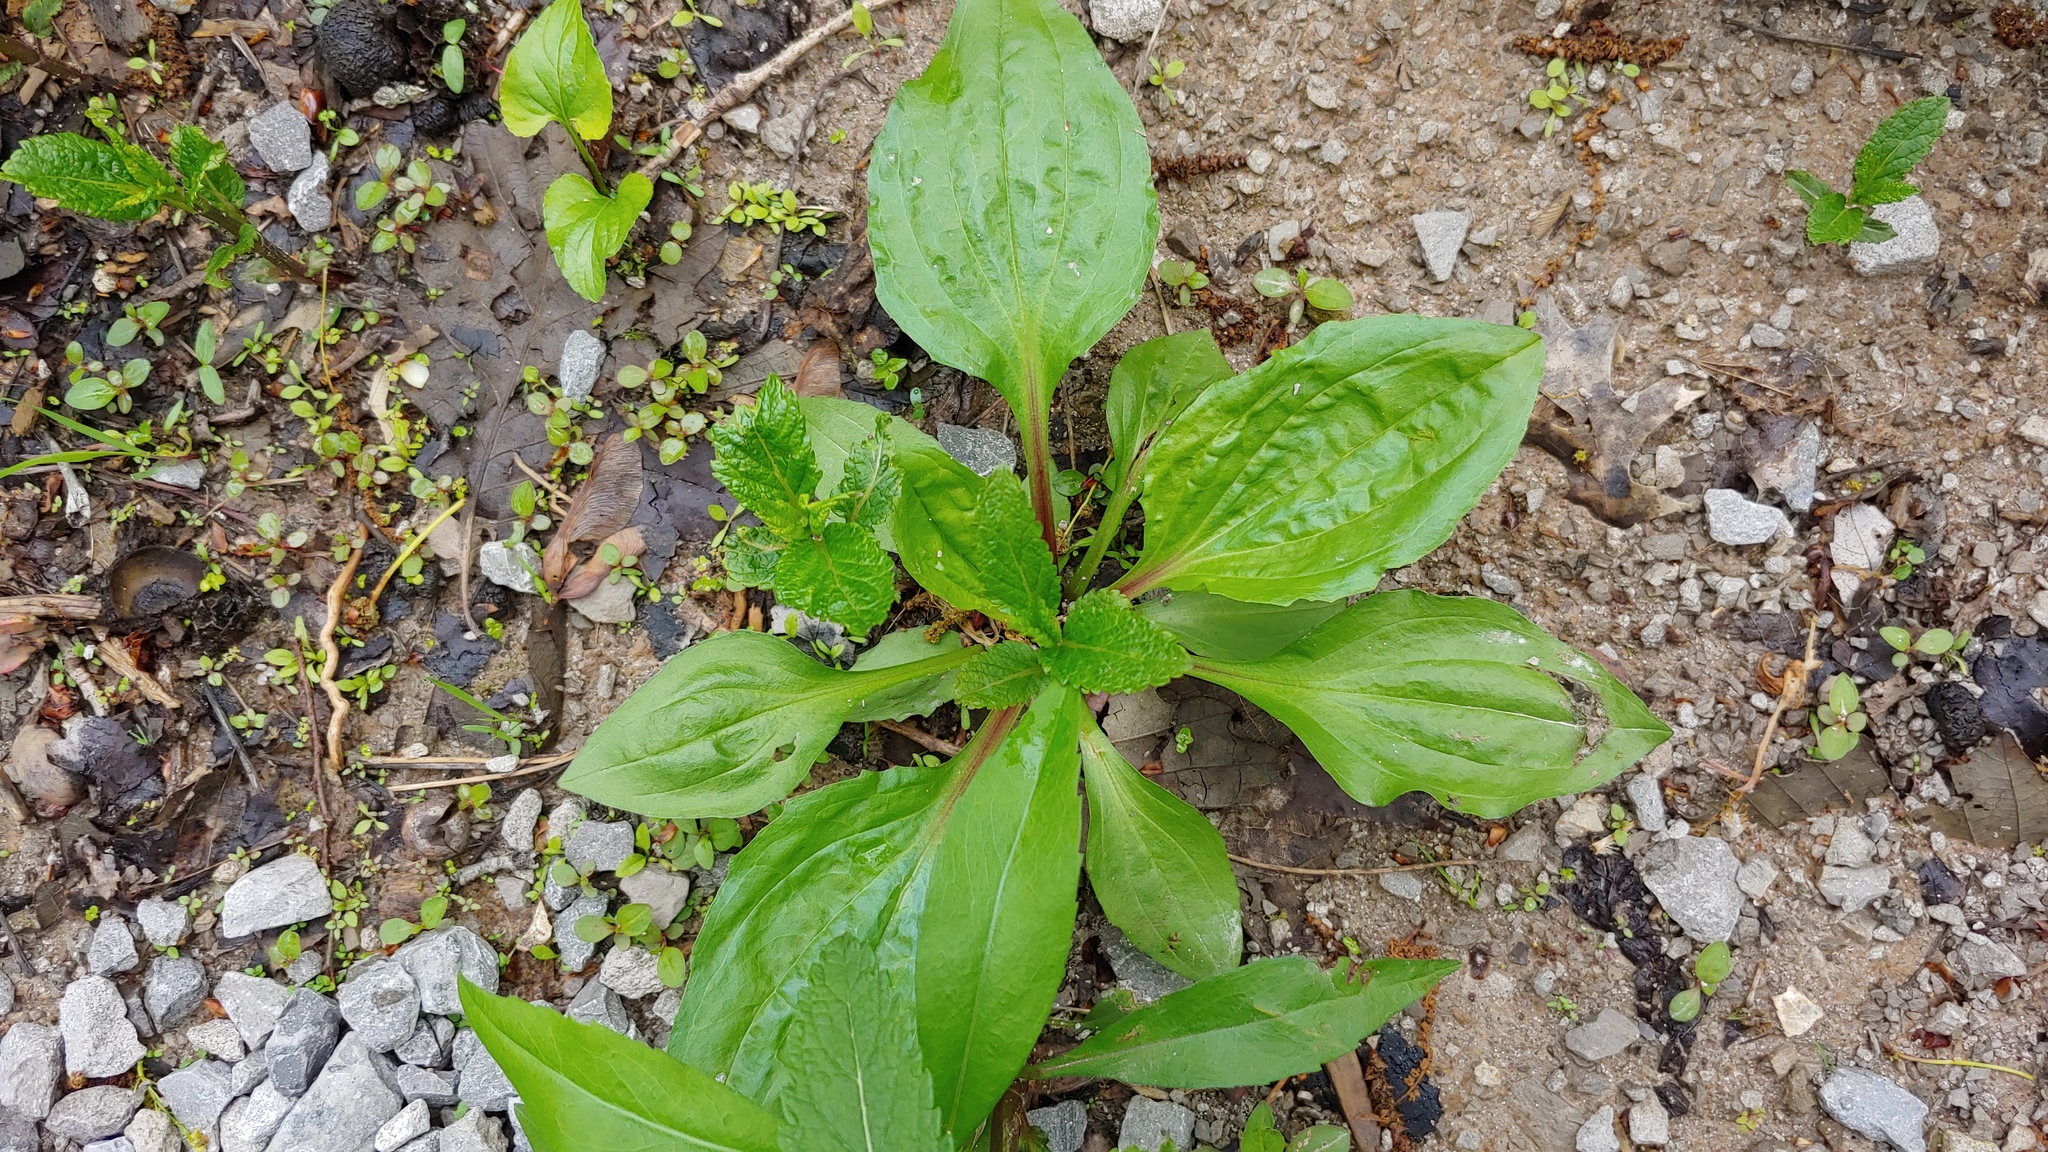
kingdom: Plantae
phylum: Tracheophyta
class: Magnoliopsida
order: Lamiales
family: Plantaginaceae
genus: Plantago
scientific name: Plantago rugelii
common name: American plantain
